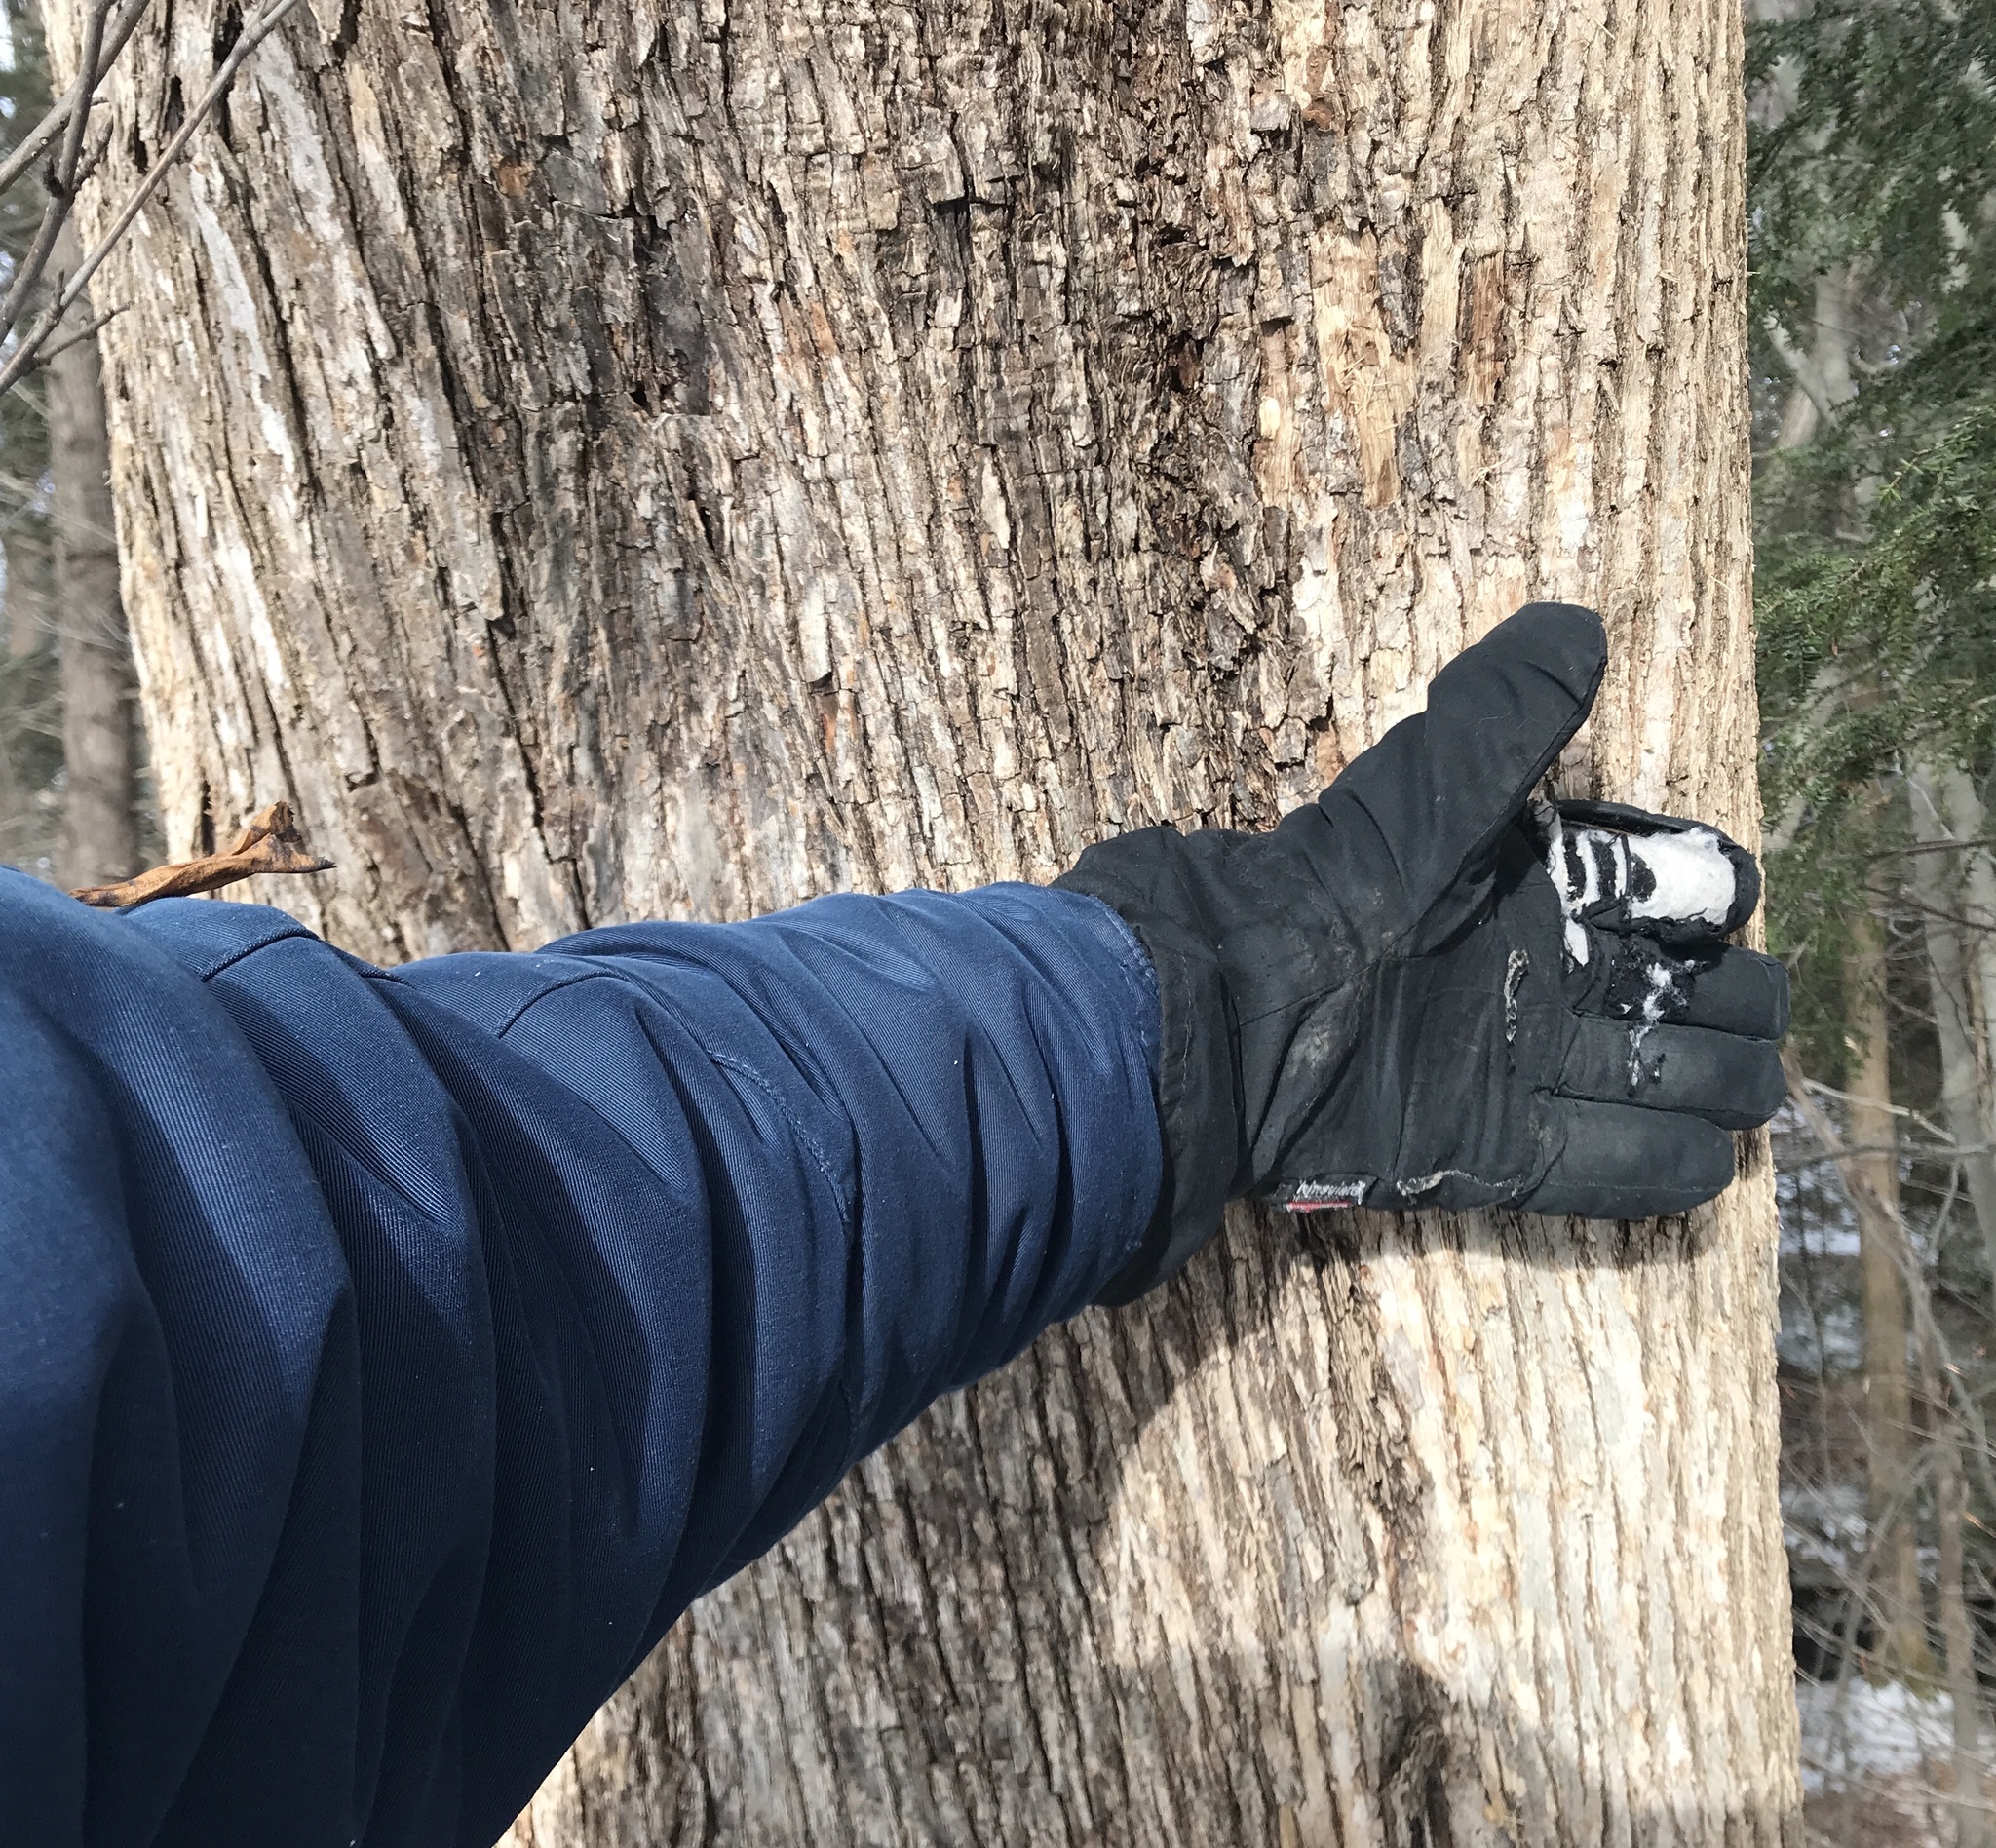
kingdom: Plantae
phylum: Tracheophyta
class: Magnoliopsida
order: Fagales
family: Betulaceae
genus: Ostrya
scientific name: Ostrya virginiana
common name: Ironwood
